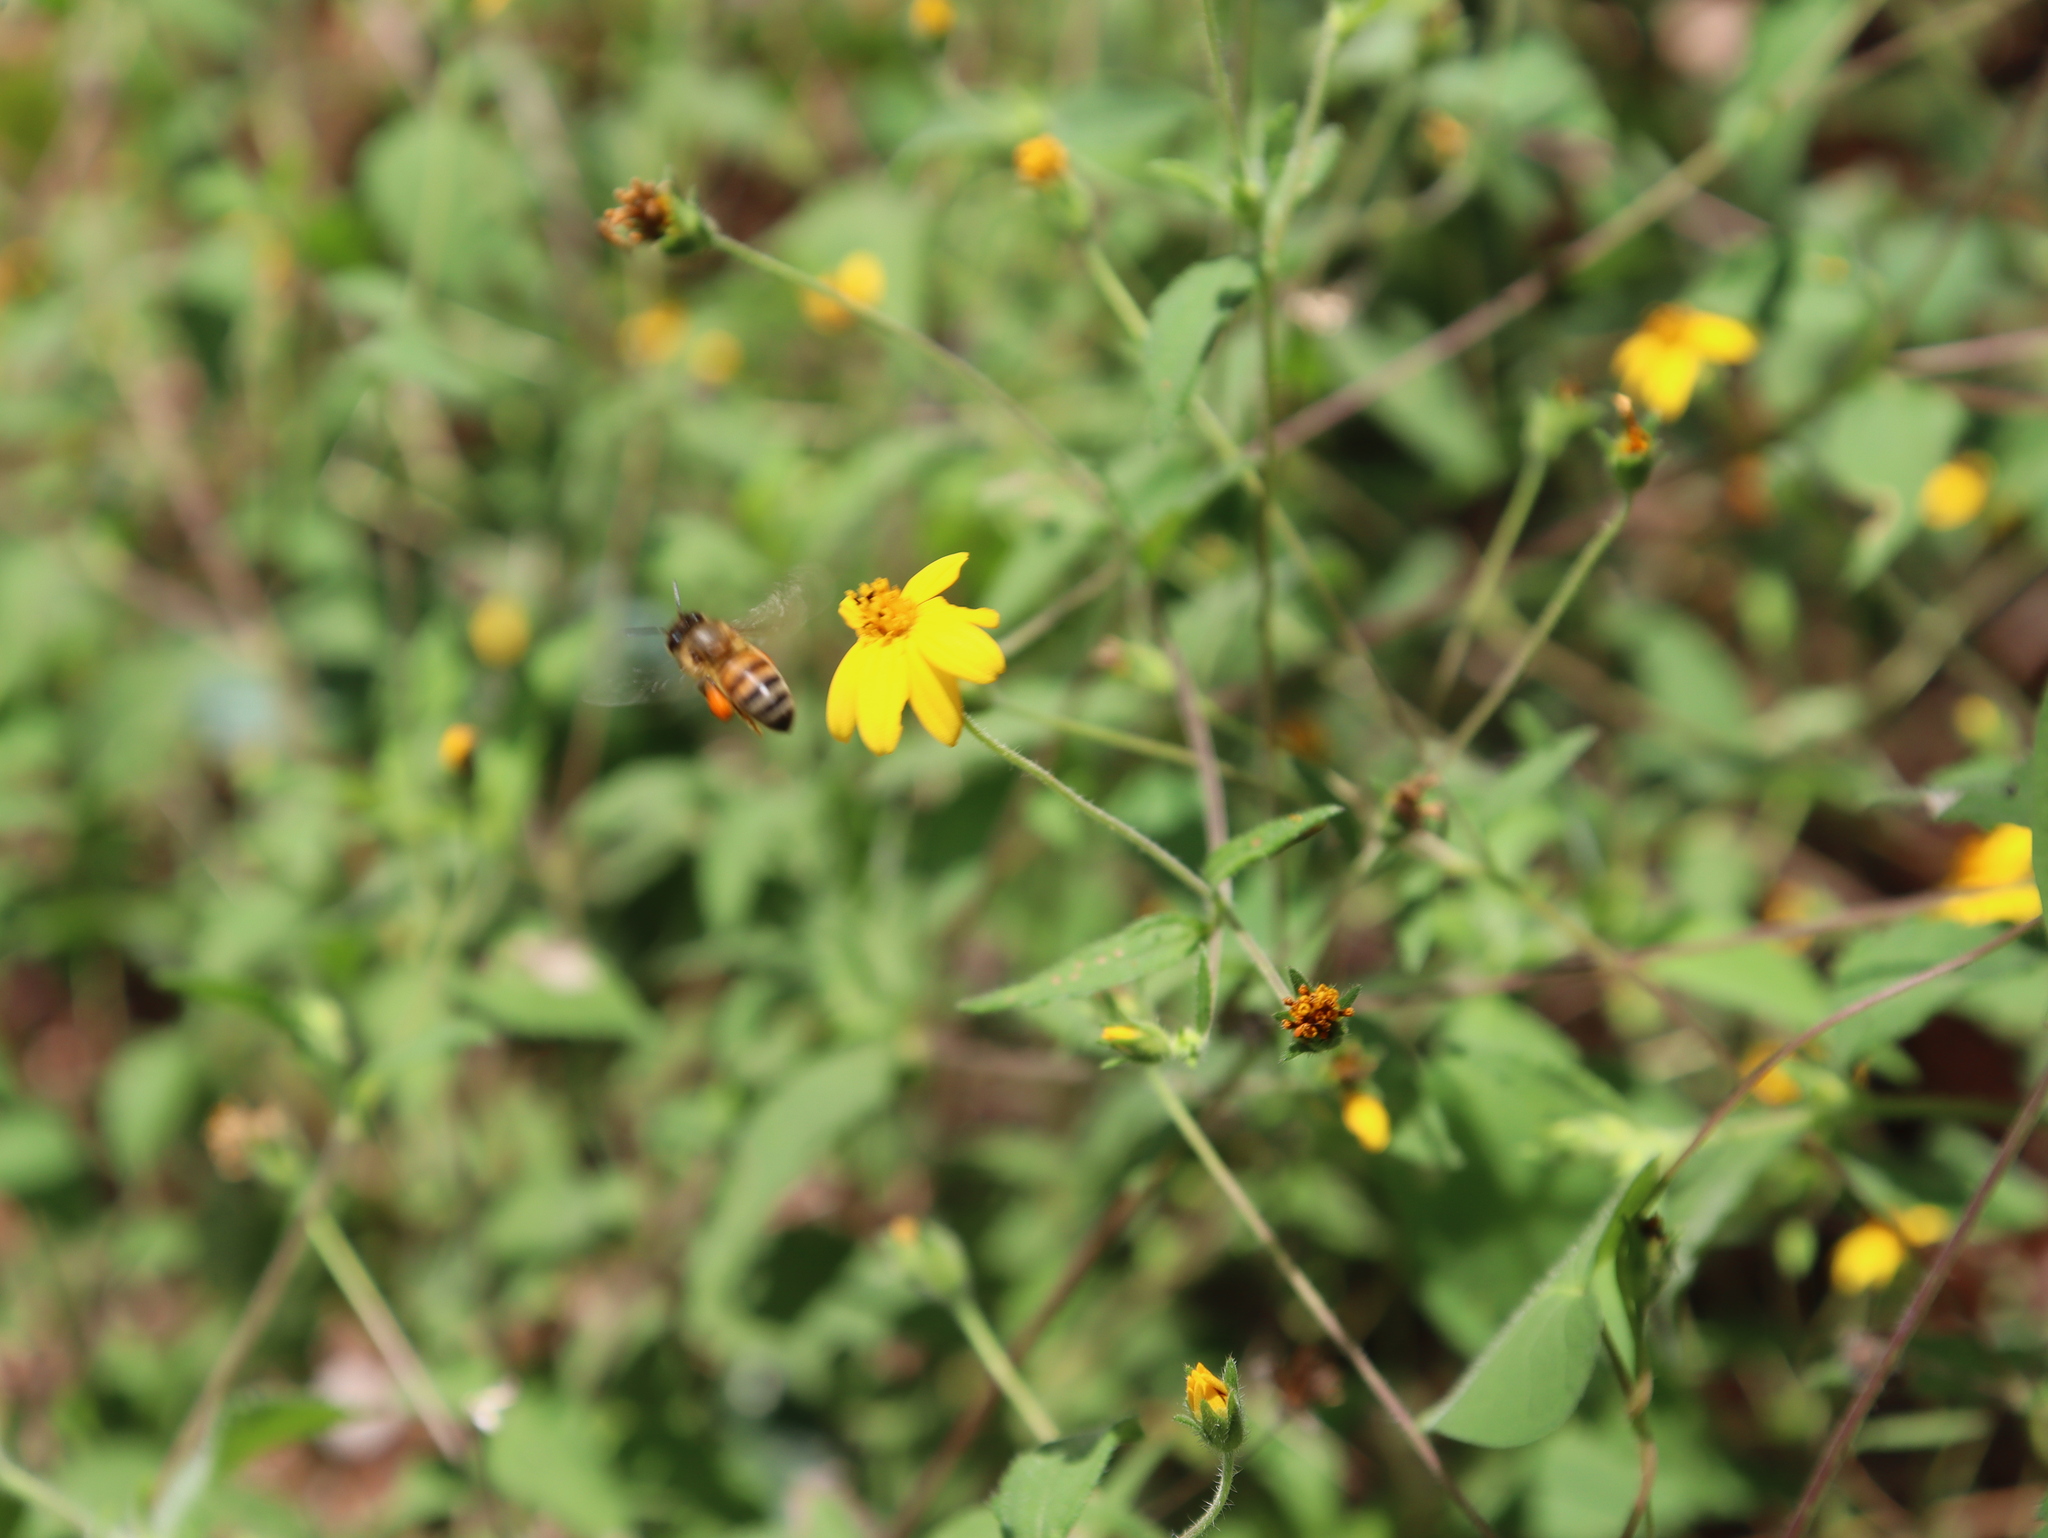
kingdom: Animalia
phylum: Arthropoda
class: Insecta
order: Hymenoptera
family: Apidae
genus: Apis
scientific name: Apis mellifera
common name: Honey bee
